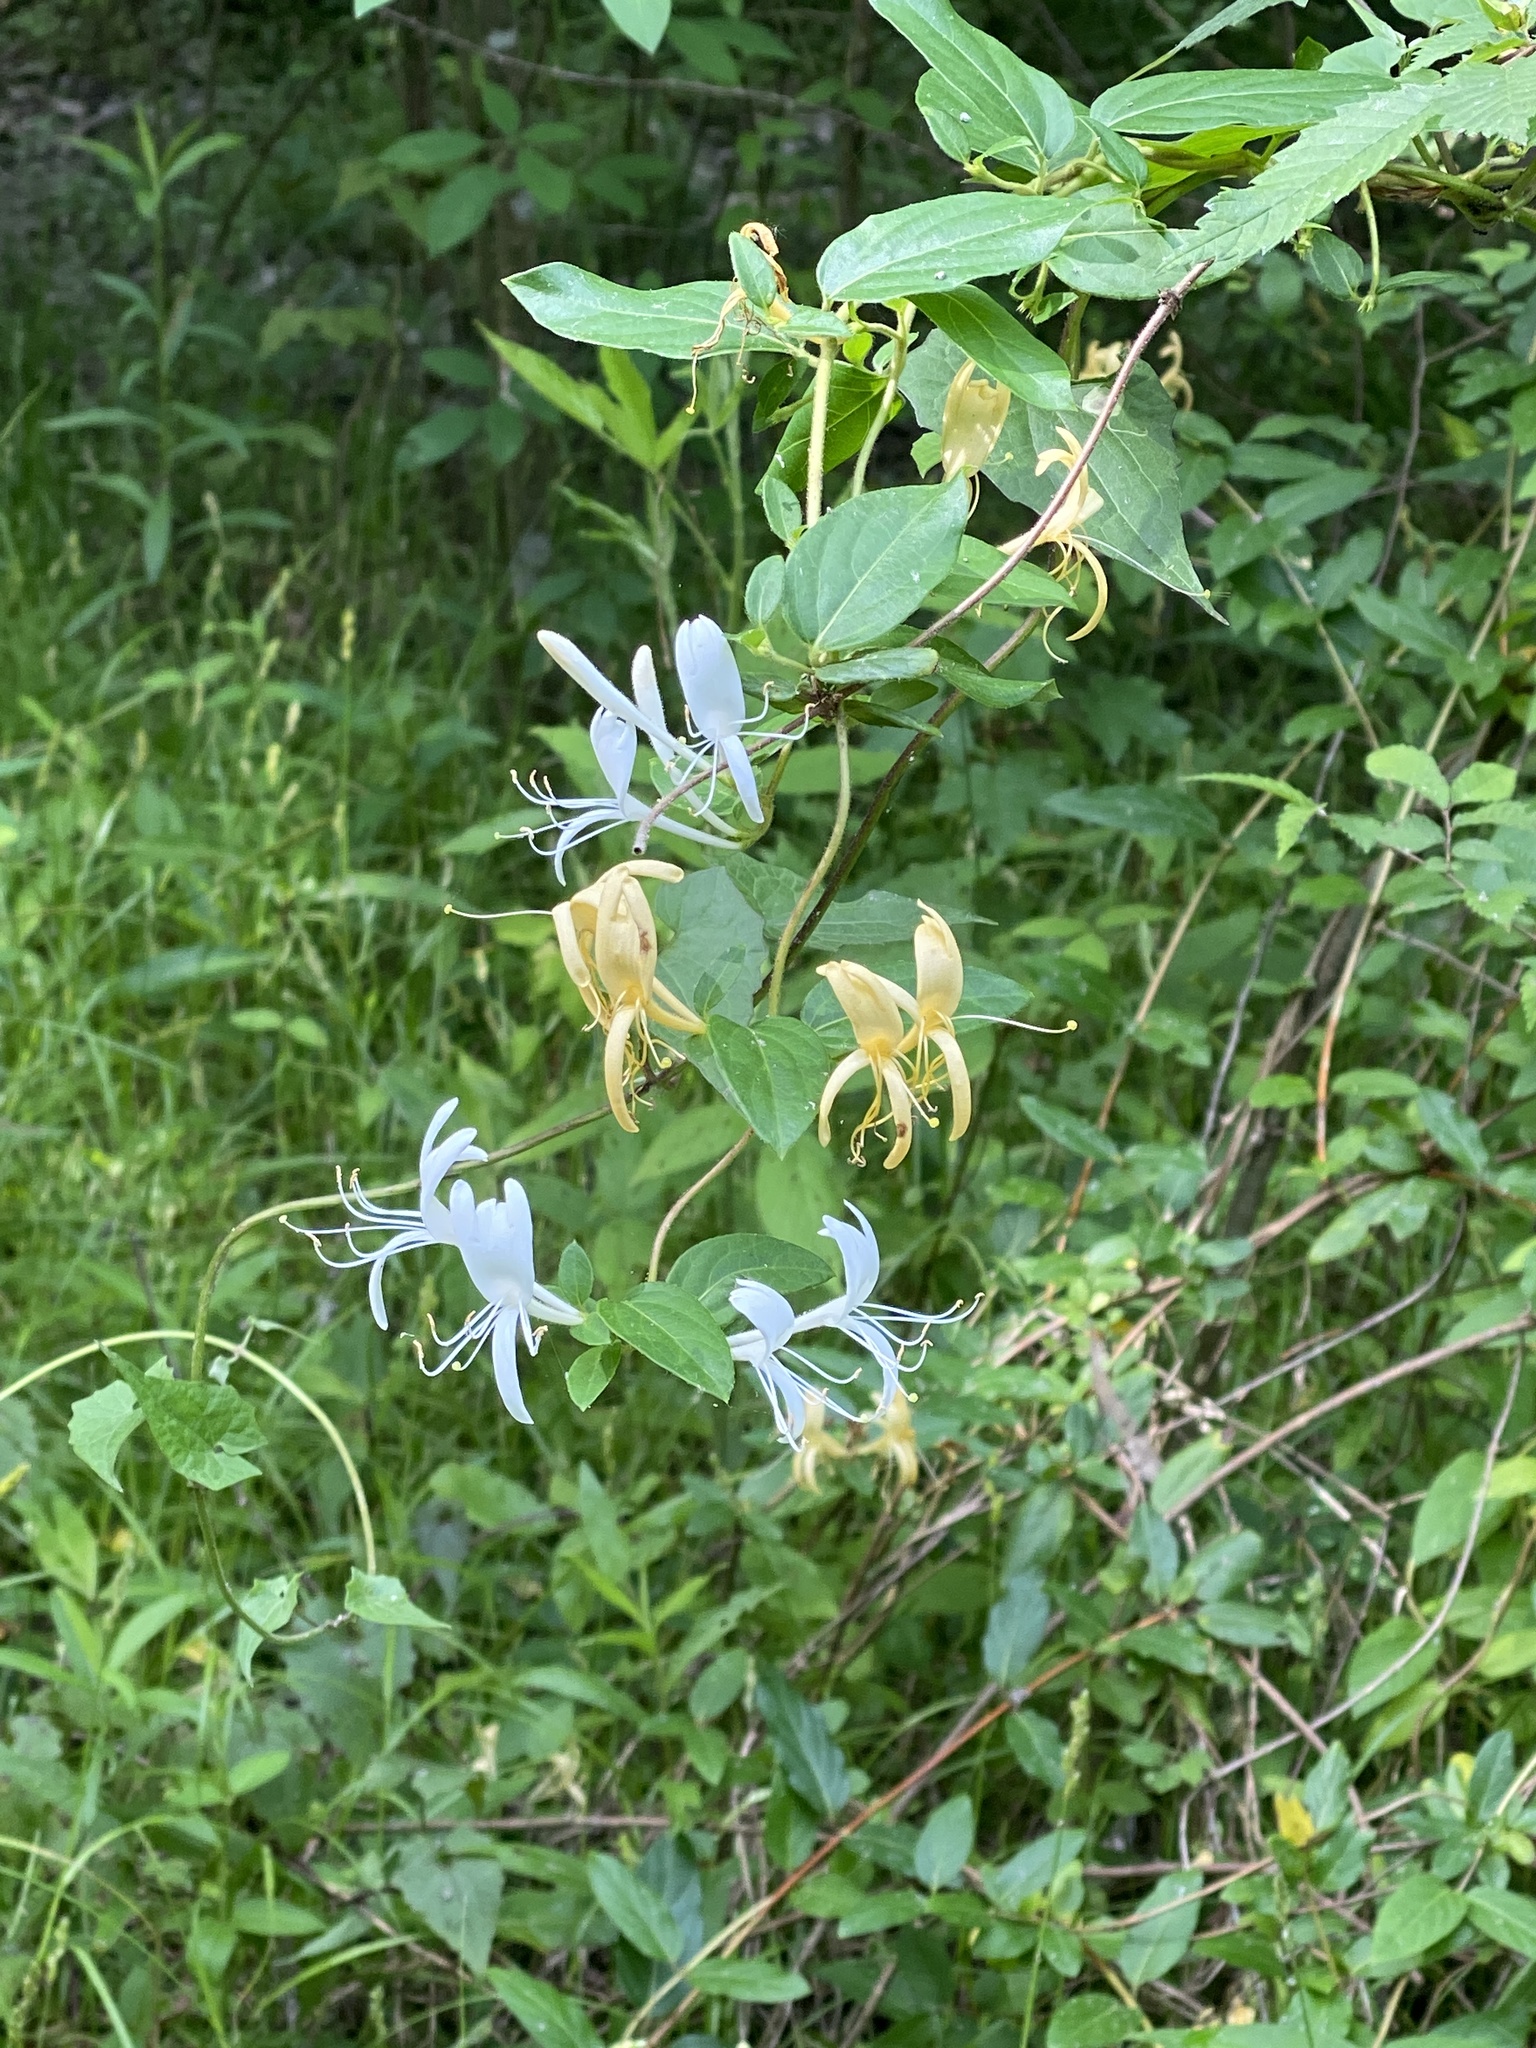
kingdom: Plantae
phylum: Tracheophyta
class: Magnoliopsida
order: Dipsacales
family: Caprifoliaceae
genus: Lonicera
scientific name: Lonicera japonica
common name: Japanese honeysuckle
